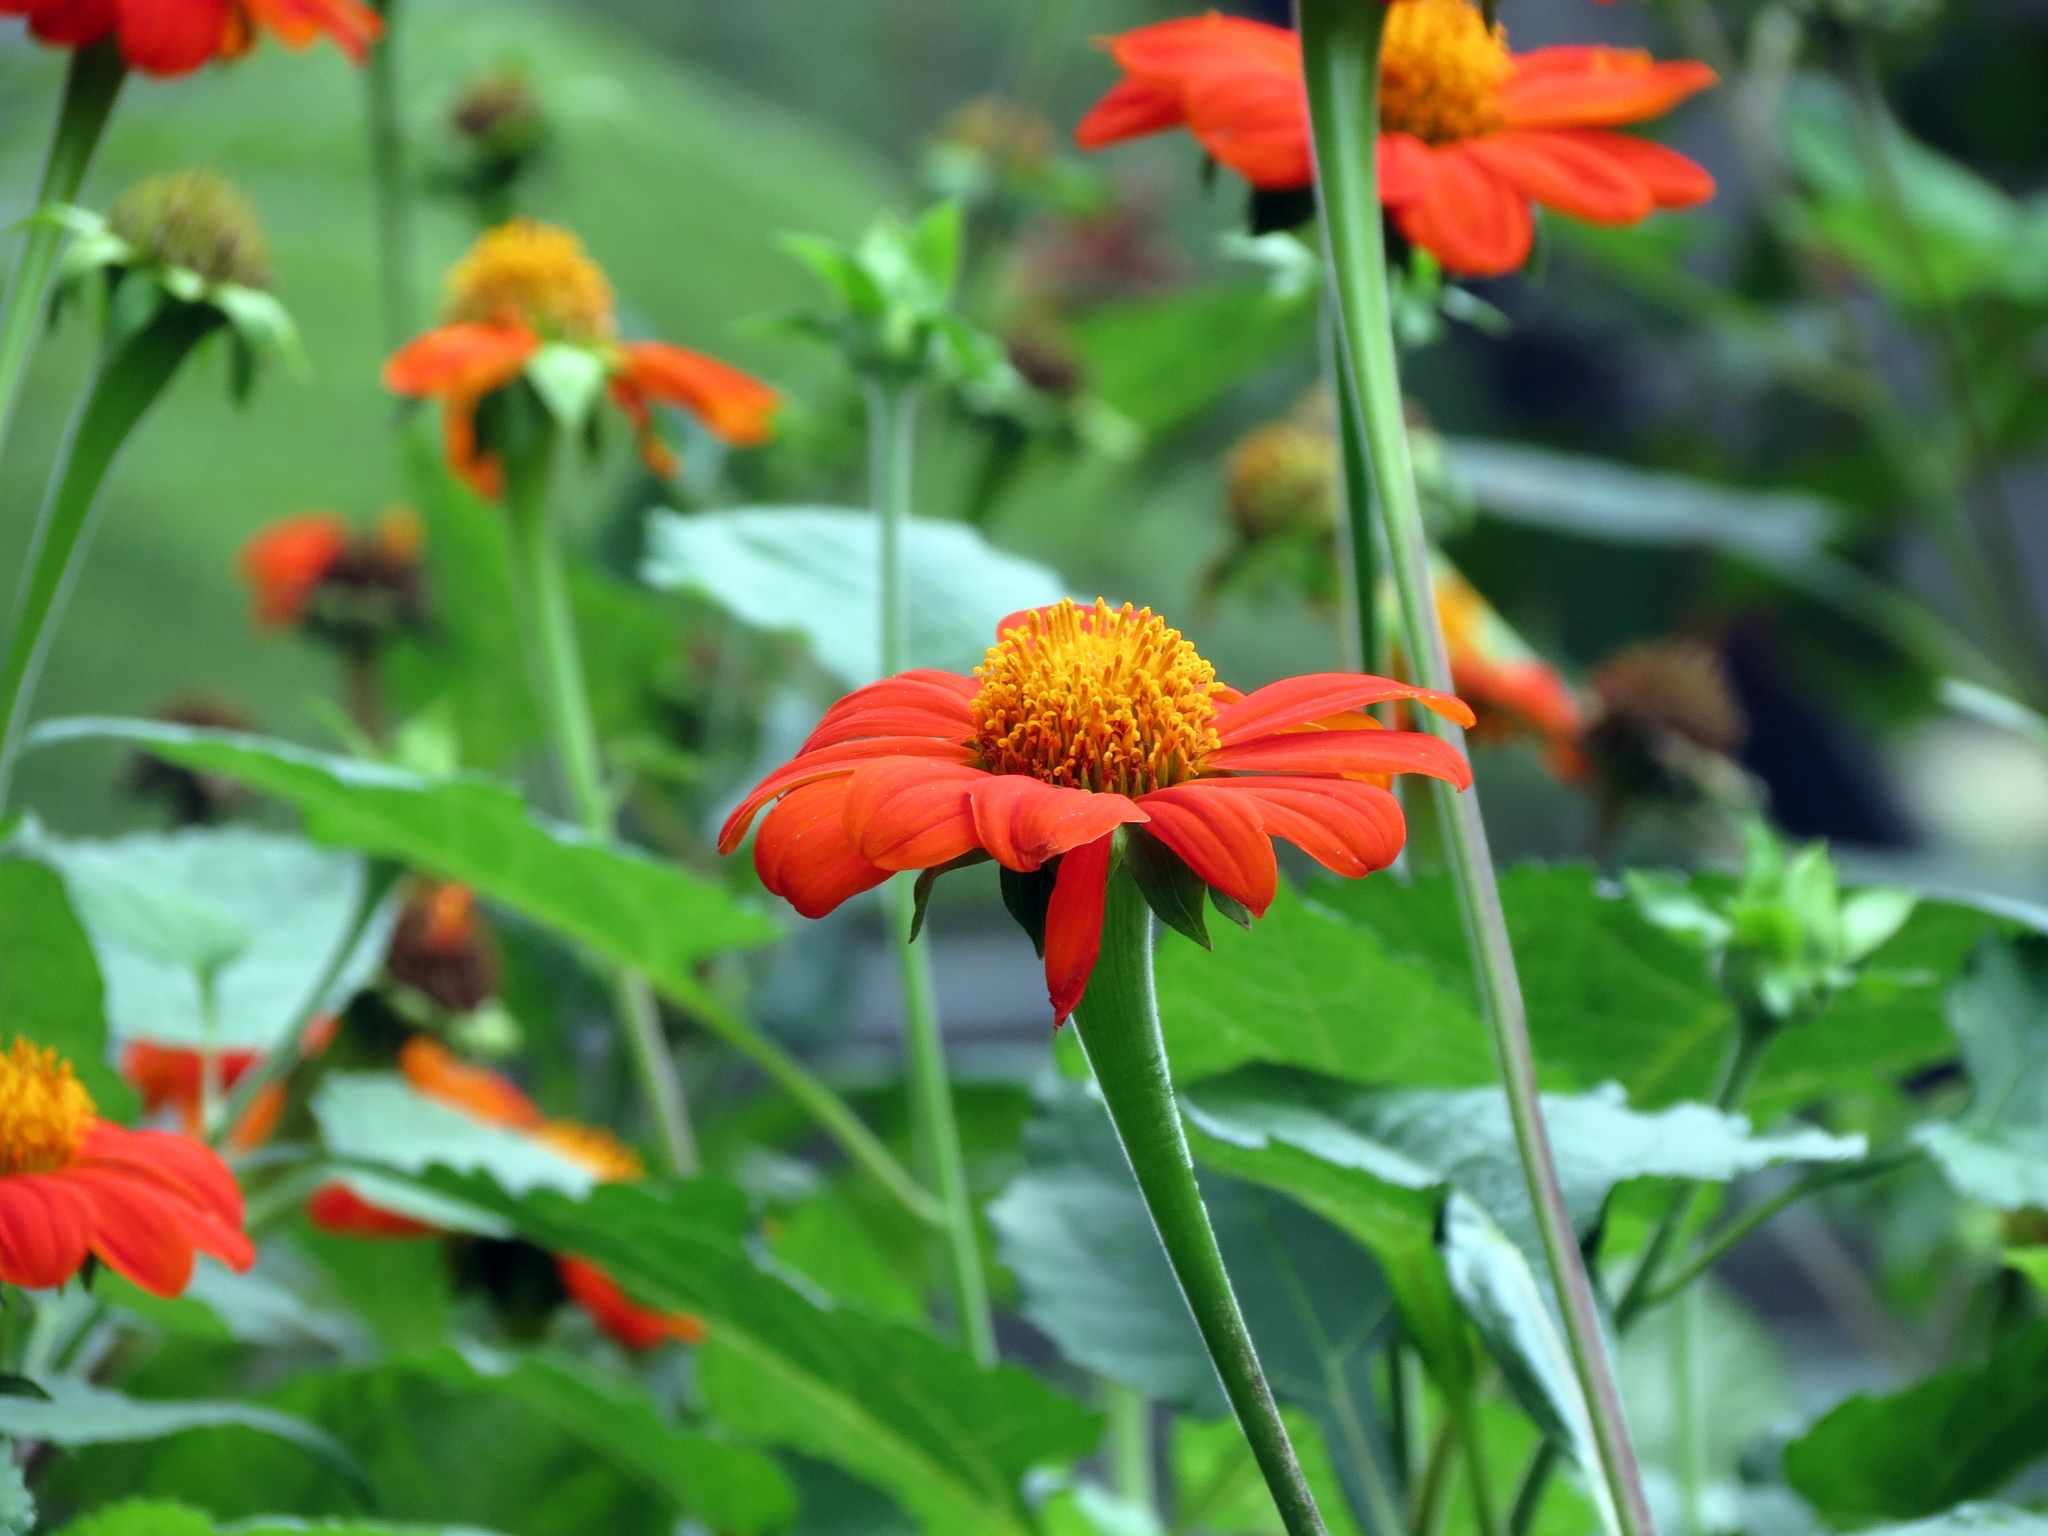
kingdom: Plantae
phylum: Tracheophyta
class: Magnoliopsida
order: Asterales
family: Asteraceae
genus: Tithonia
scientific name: Tithonia rotundifolia
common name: Sunflower
